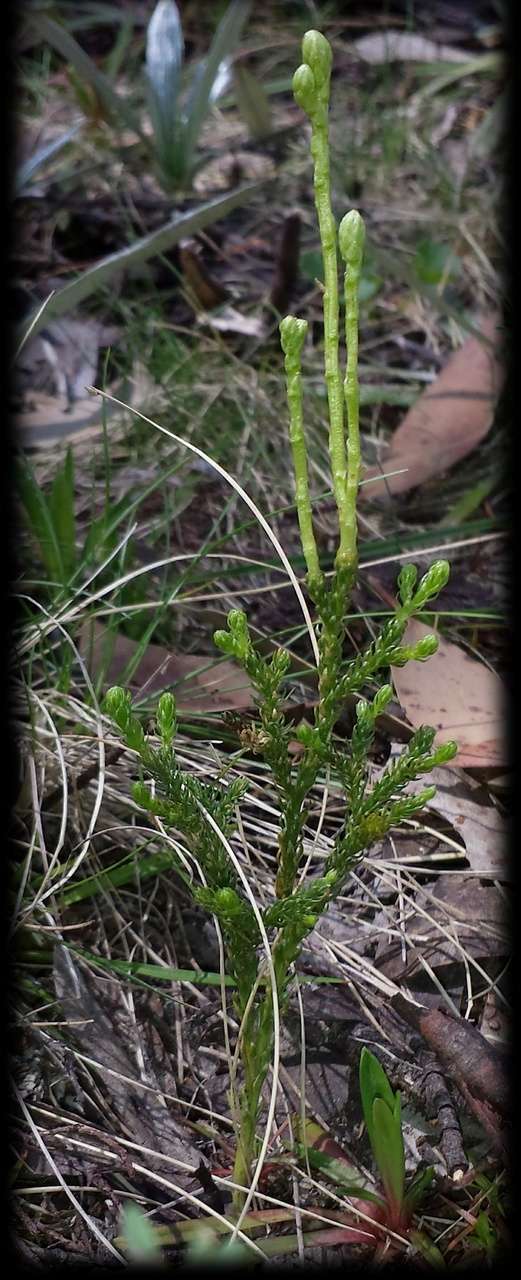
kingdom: Plantae
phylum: Tracheophyta
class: Lycopodiopsida
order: Lycopodiales
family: Lycopodiaceae
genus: Austrolycopodium
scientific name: Austrolycopodium fastigiatum
